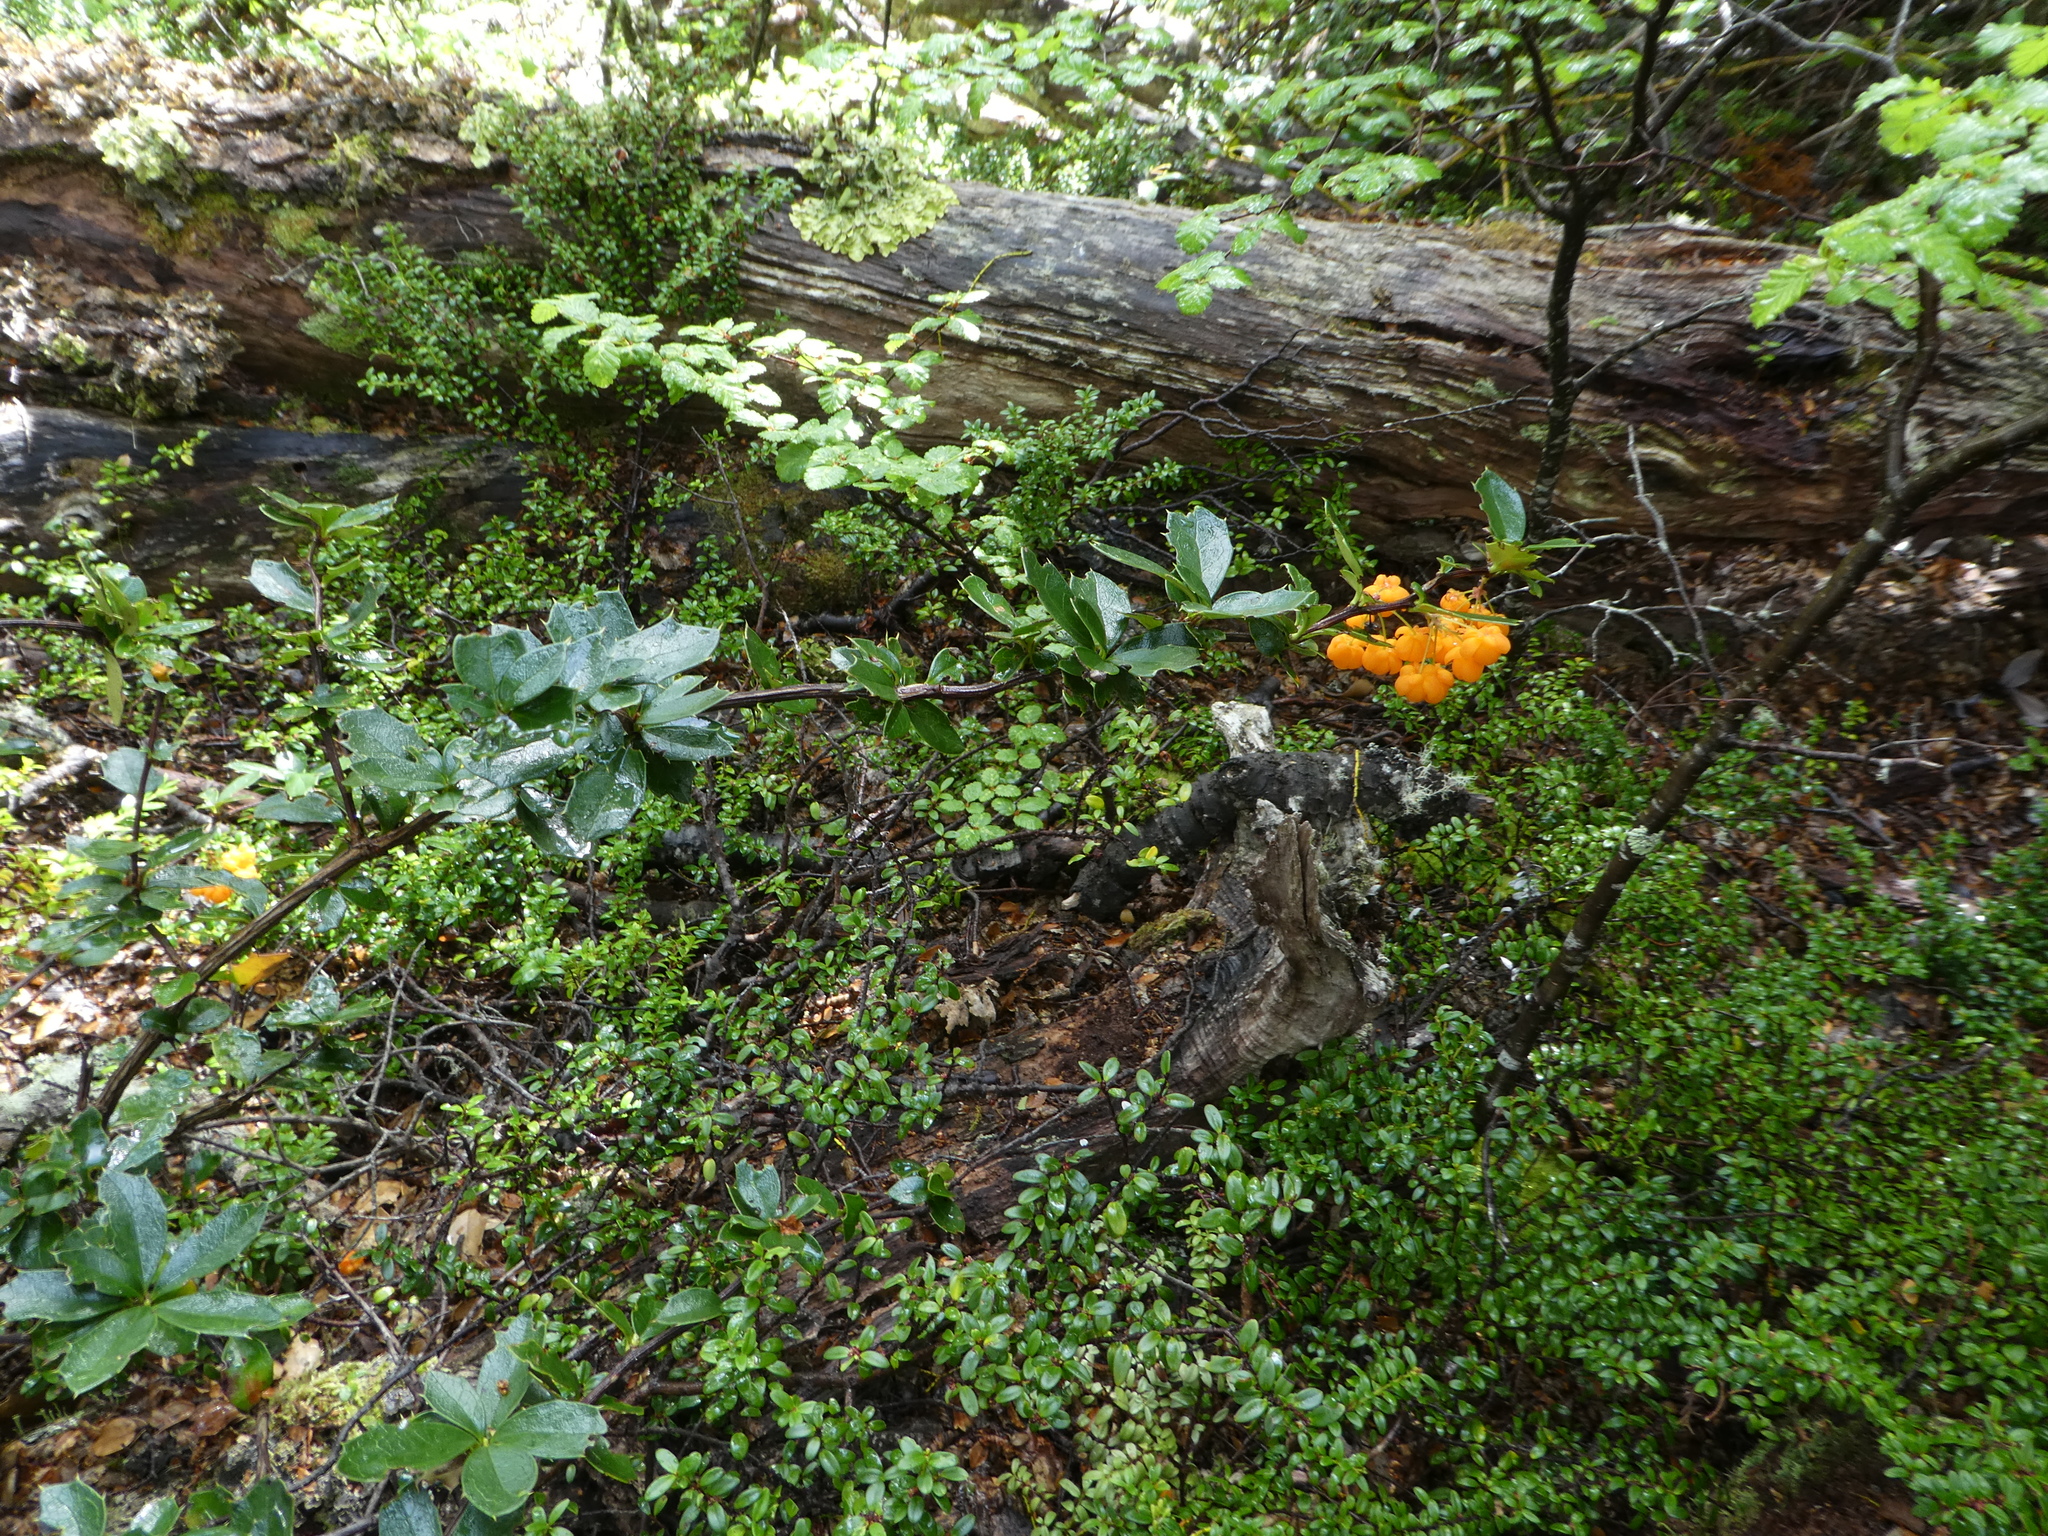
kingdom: Plantae
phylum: Tracheophyta
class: Magnoliopsida
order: Ranunculales
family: Berberidaceae
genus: Berberis
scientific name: Berberis ilicifolia
